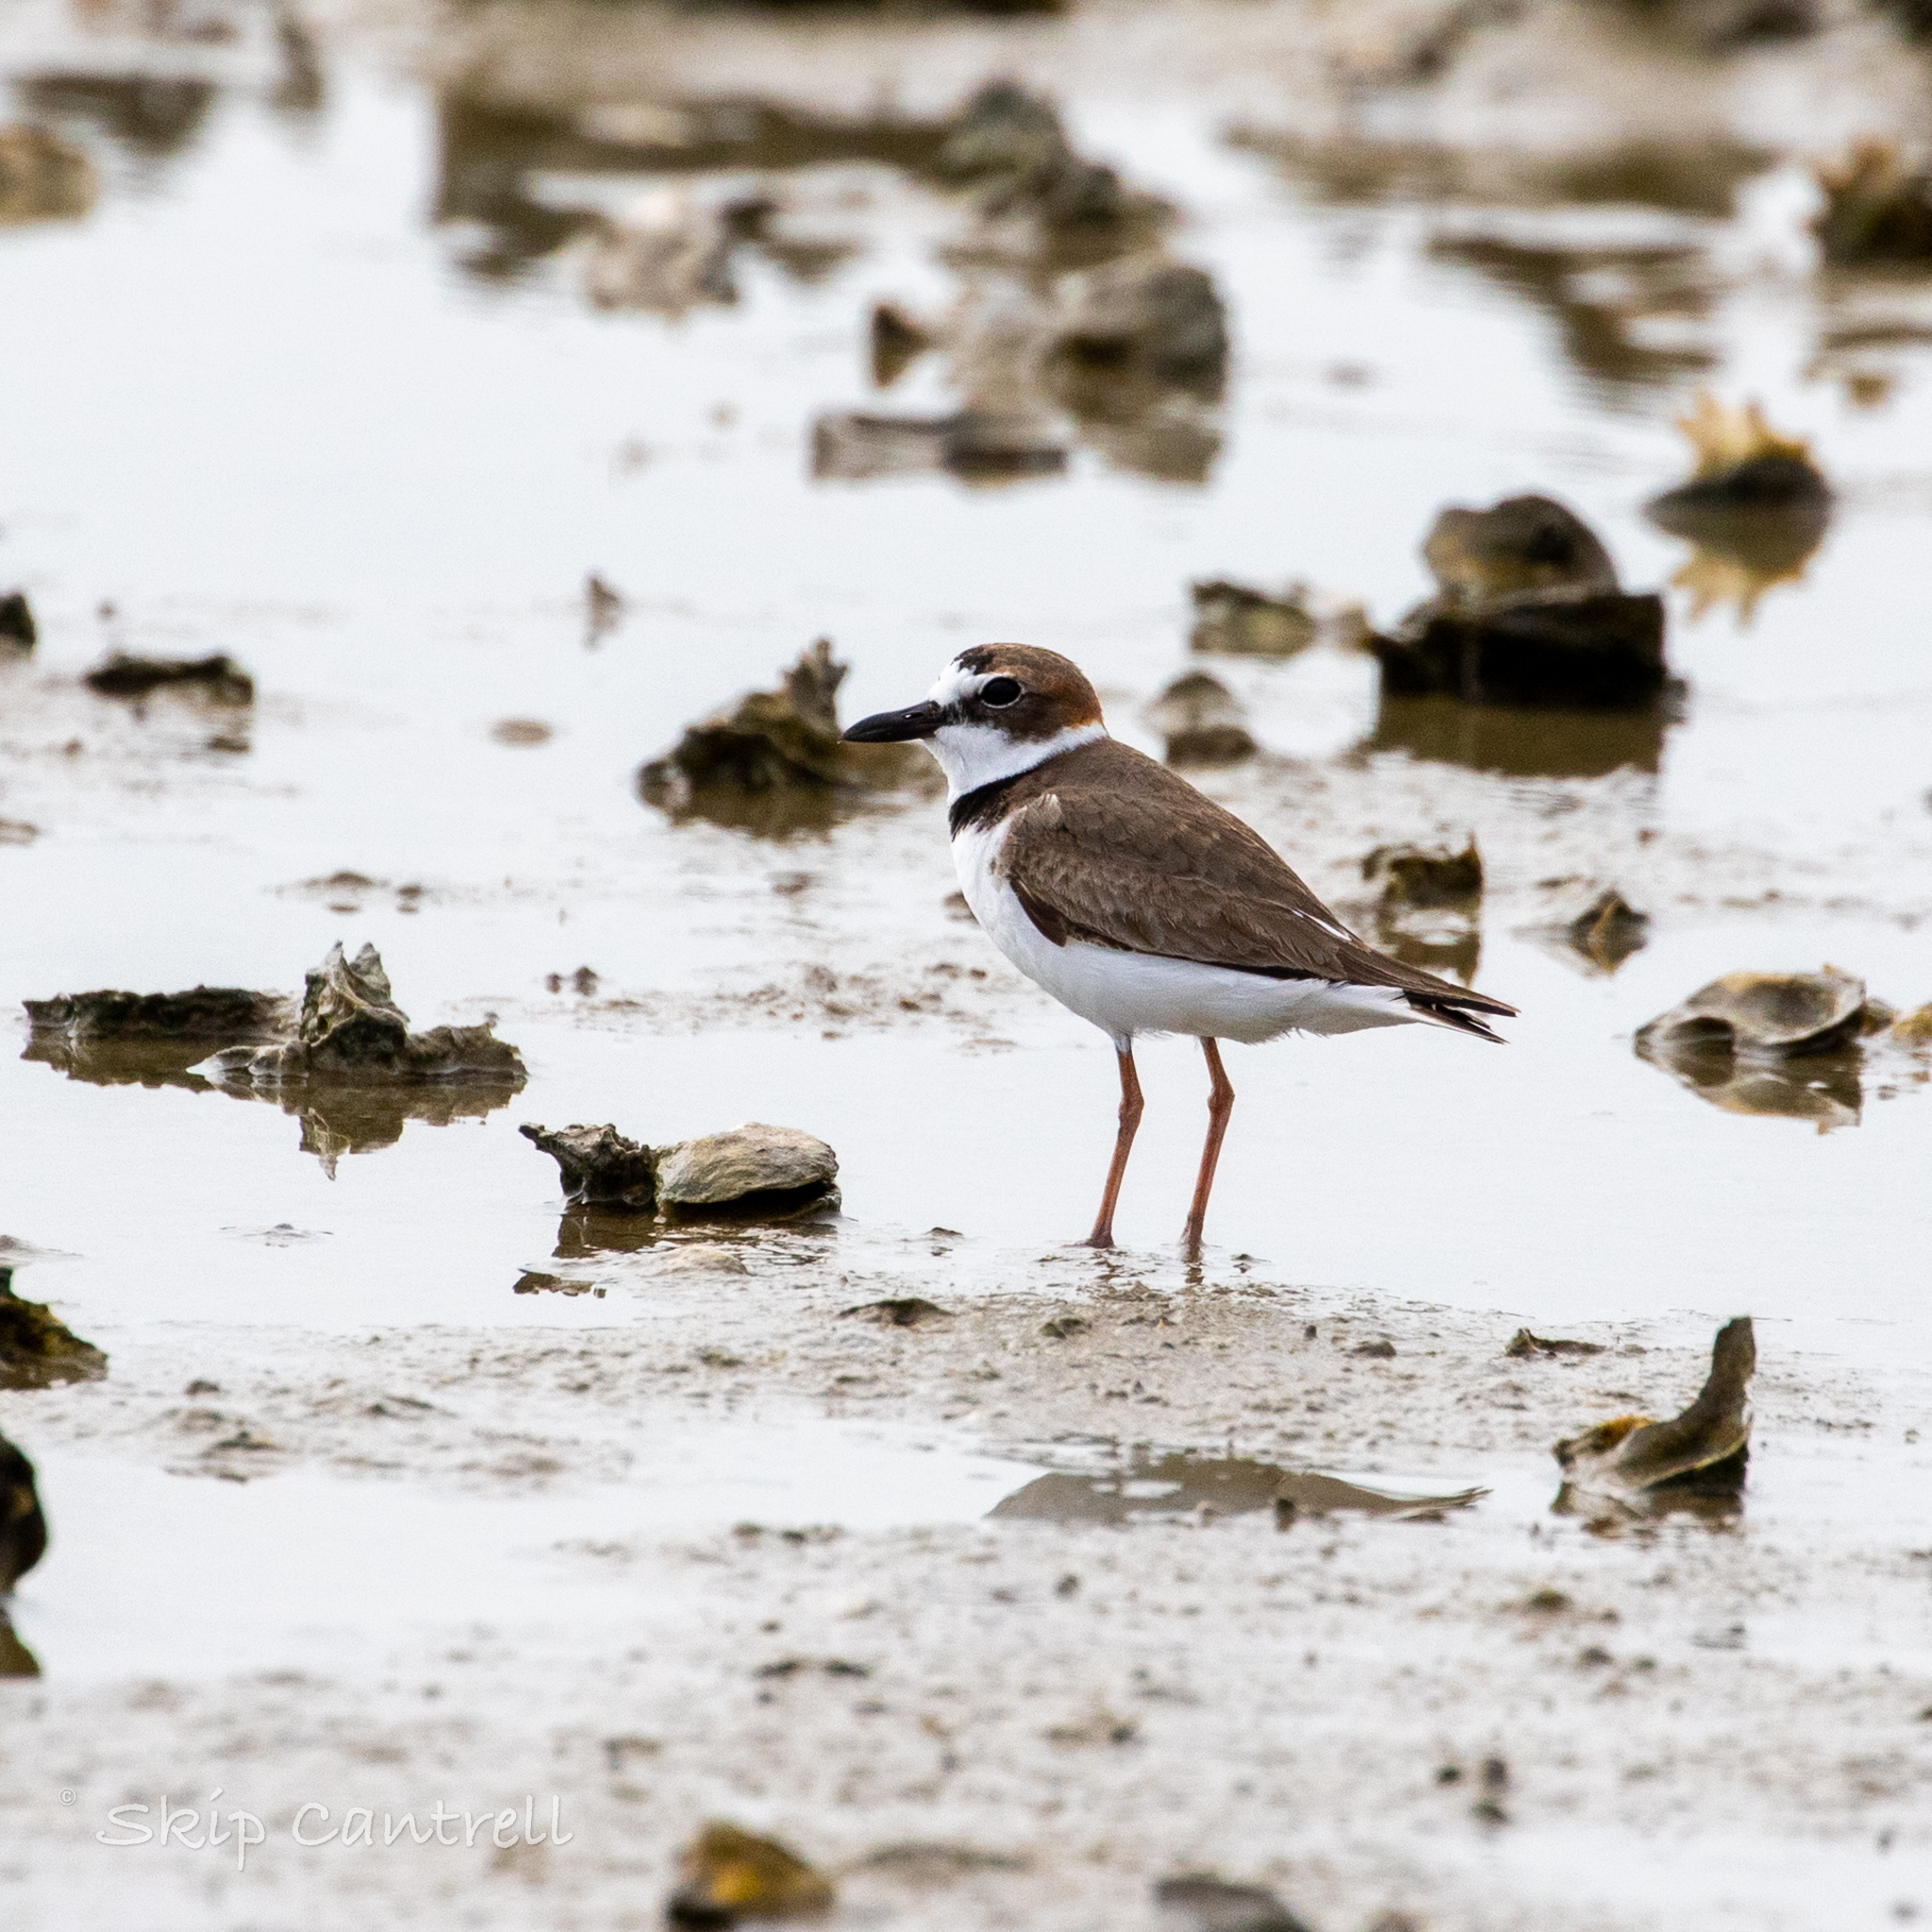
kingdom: Animalia
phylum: Chordata
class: Aves
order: Charadriiformes
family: Charadriidae
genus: Anarhynchus
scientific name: Anarhynchus
